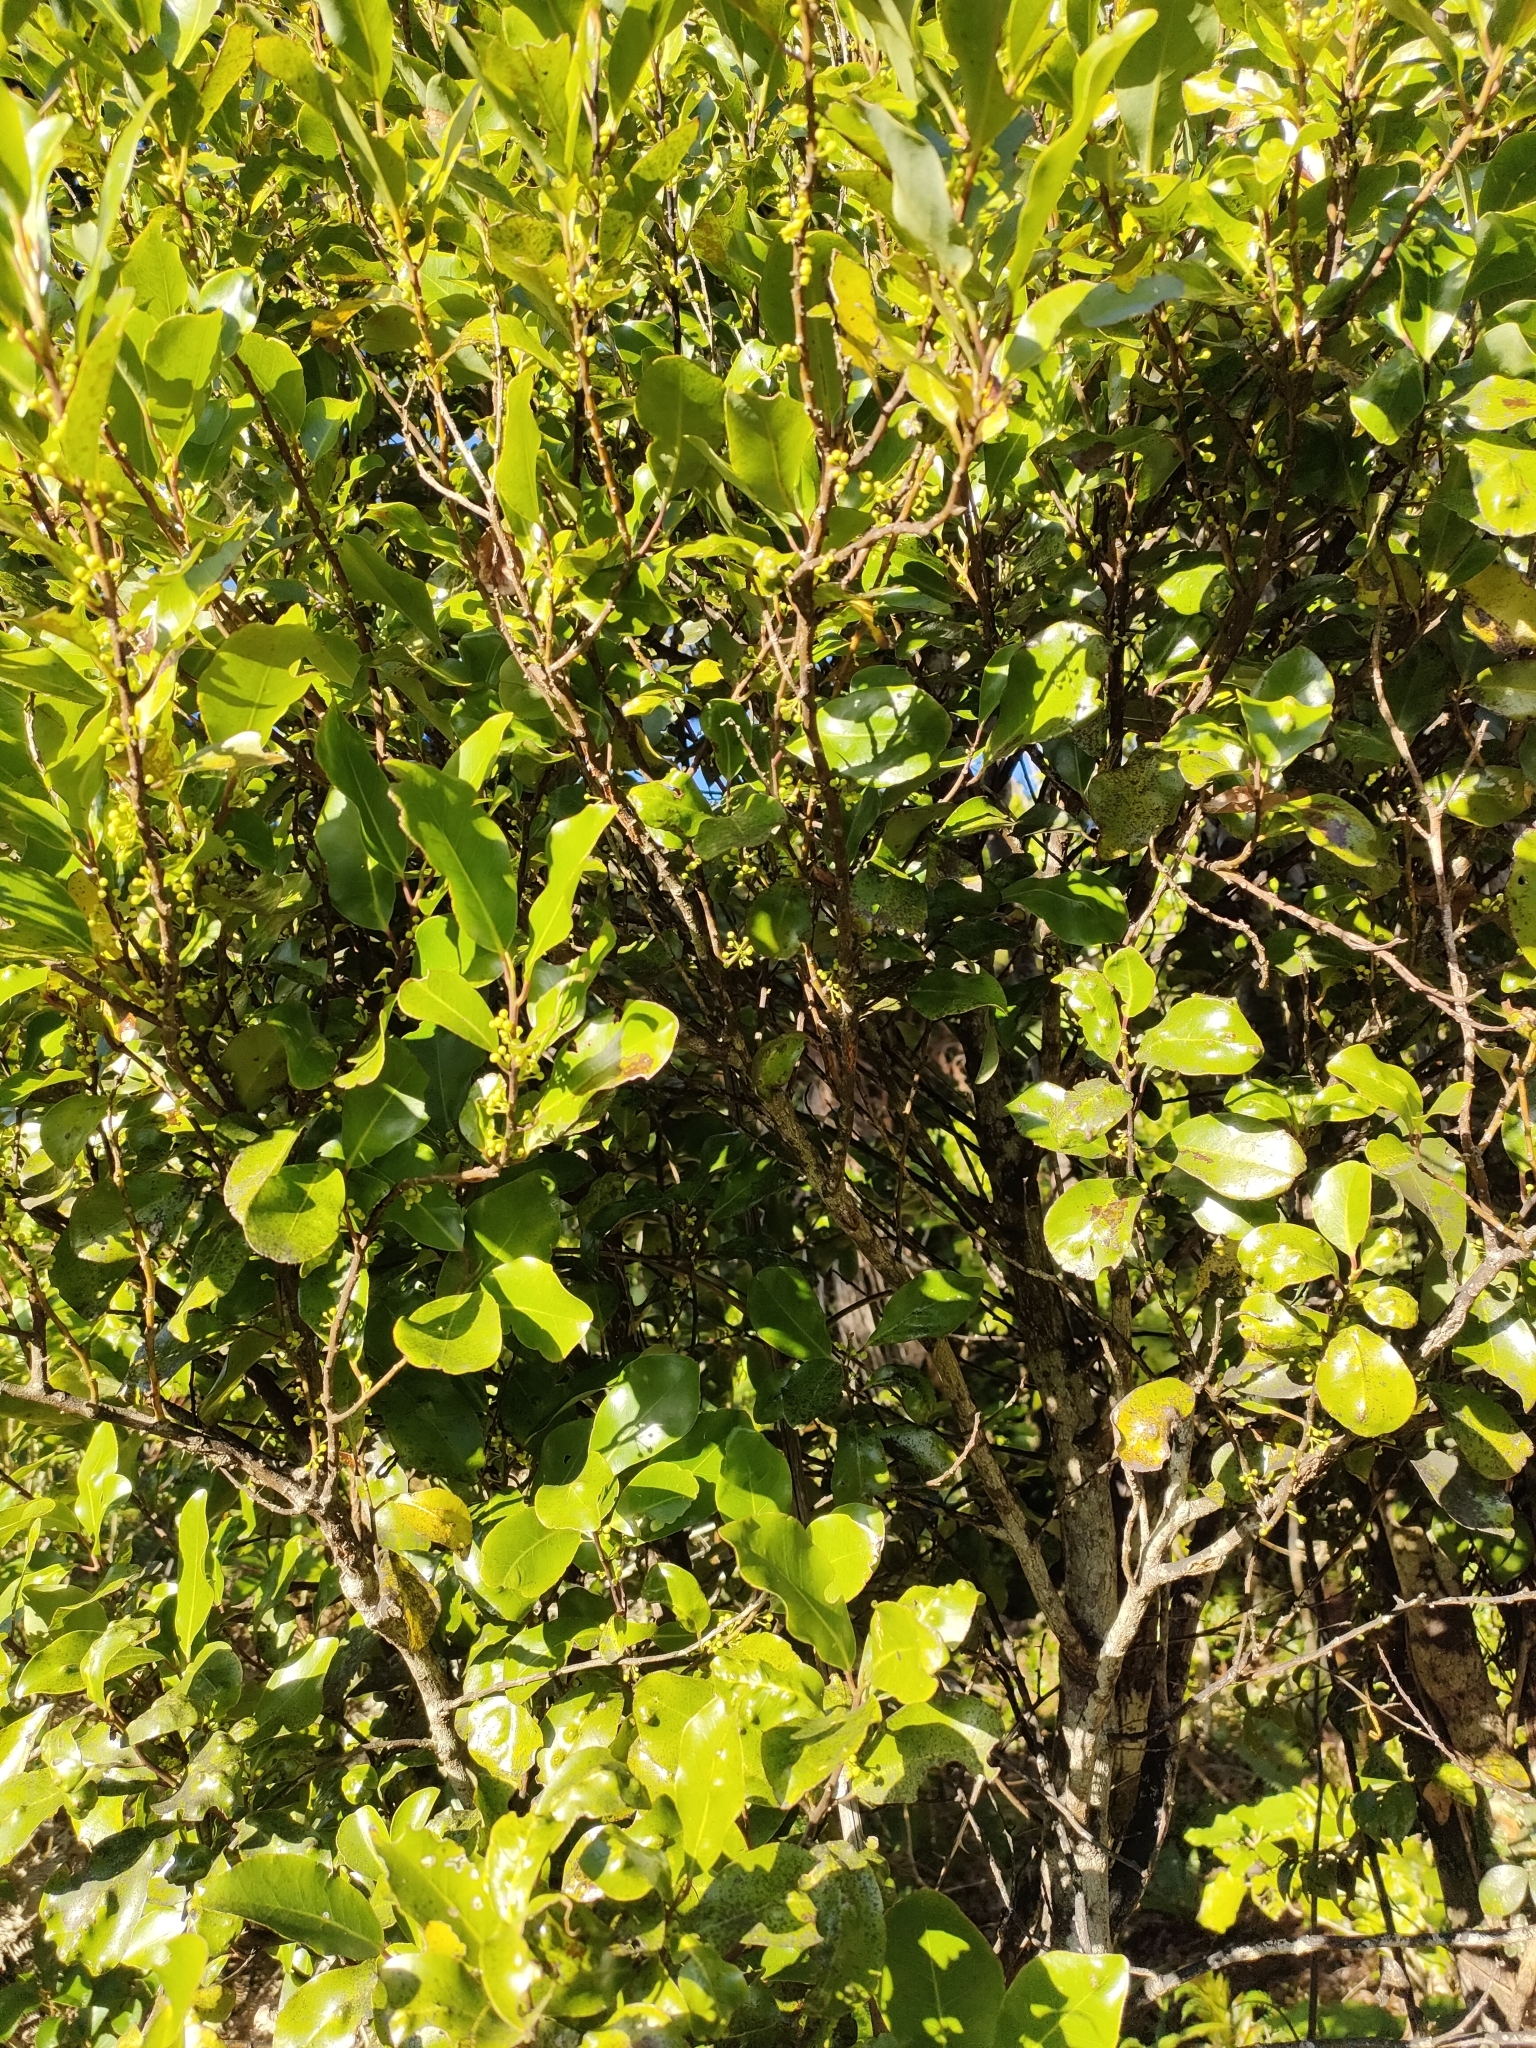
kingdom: Plantae
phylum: Tracheophyta
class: Magnoliopsida
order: Canellales
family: Winteraceae
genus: Pseudowintera
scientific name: Pseudowintera axillaris
